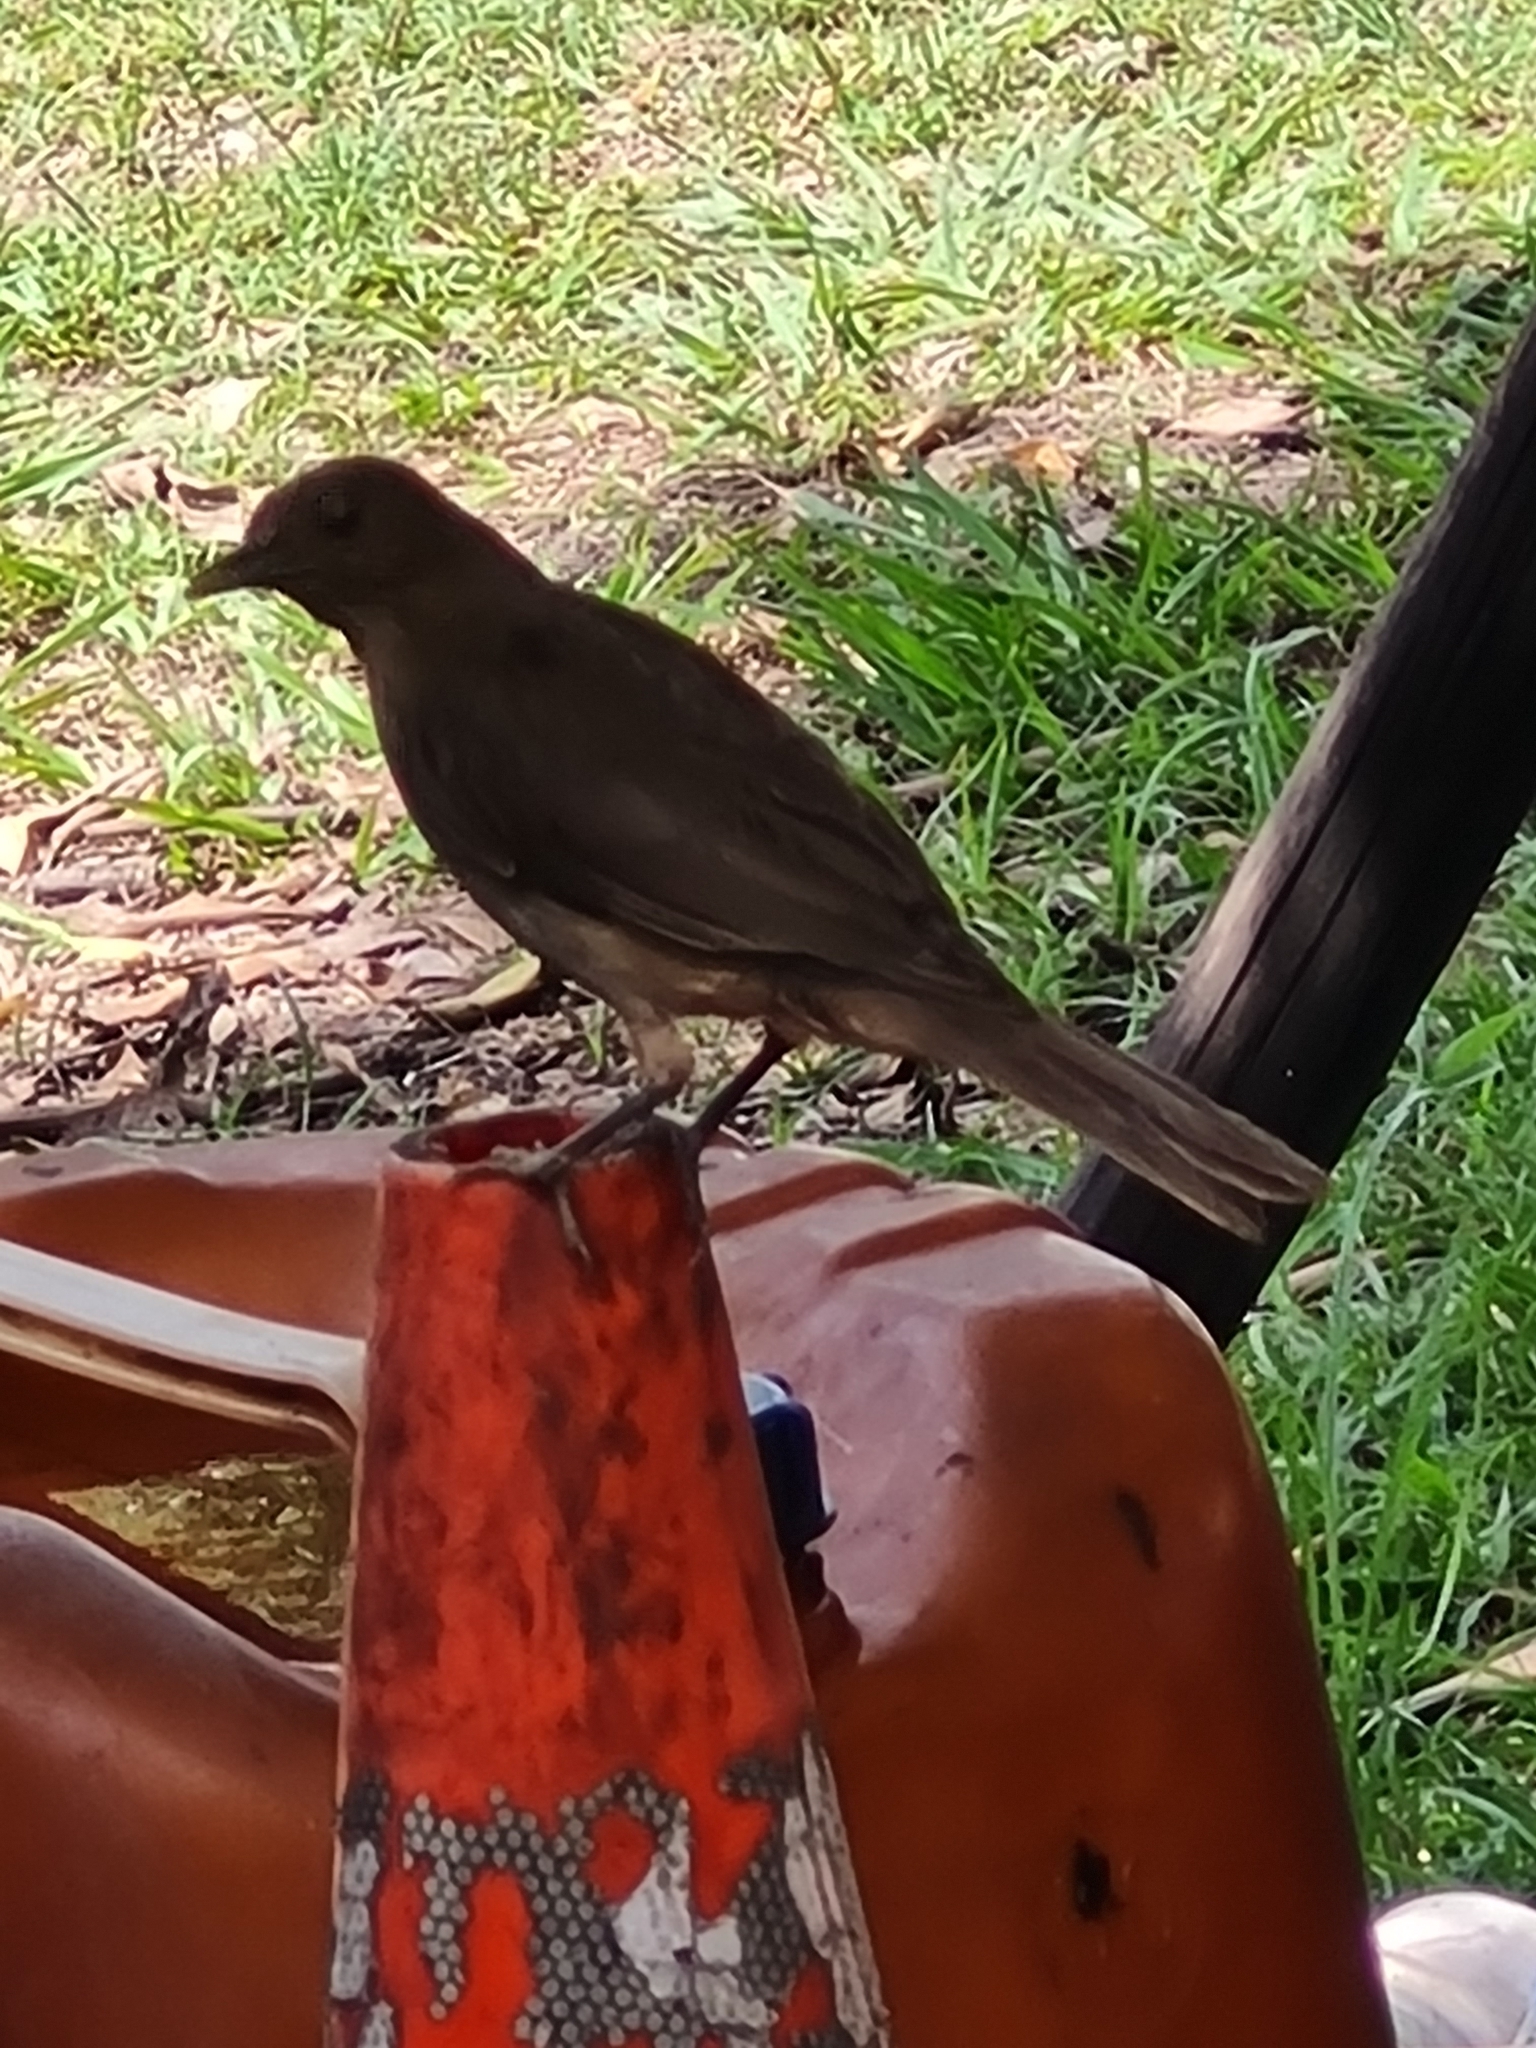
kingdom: Animalia
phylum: Chordata
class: Aves
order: Passeriformes
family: Turdidae
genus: Turdus
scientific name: Turdus grayi
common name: Clay-colored thrush
